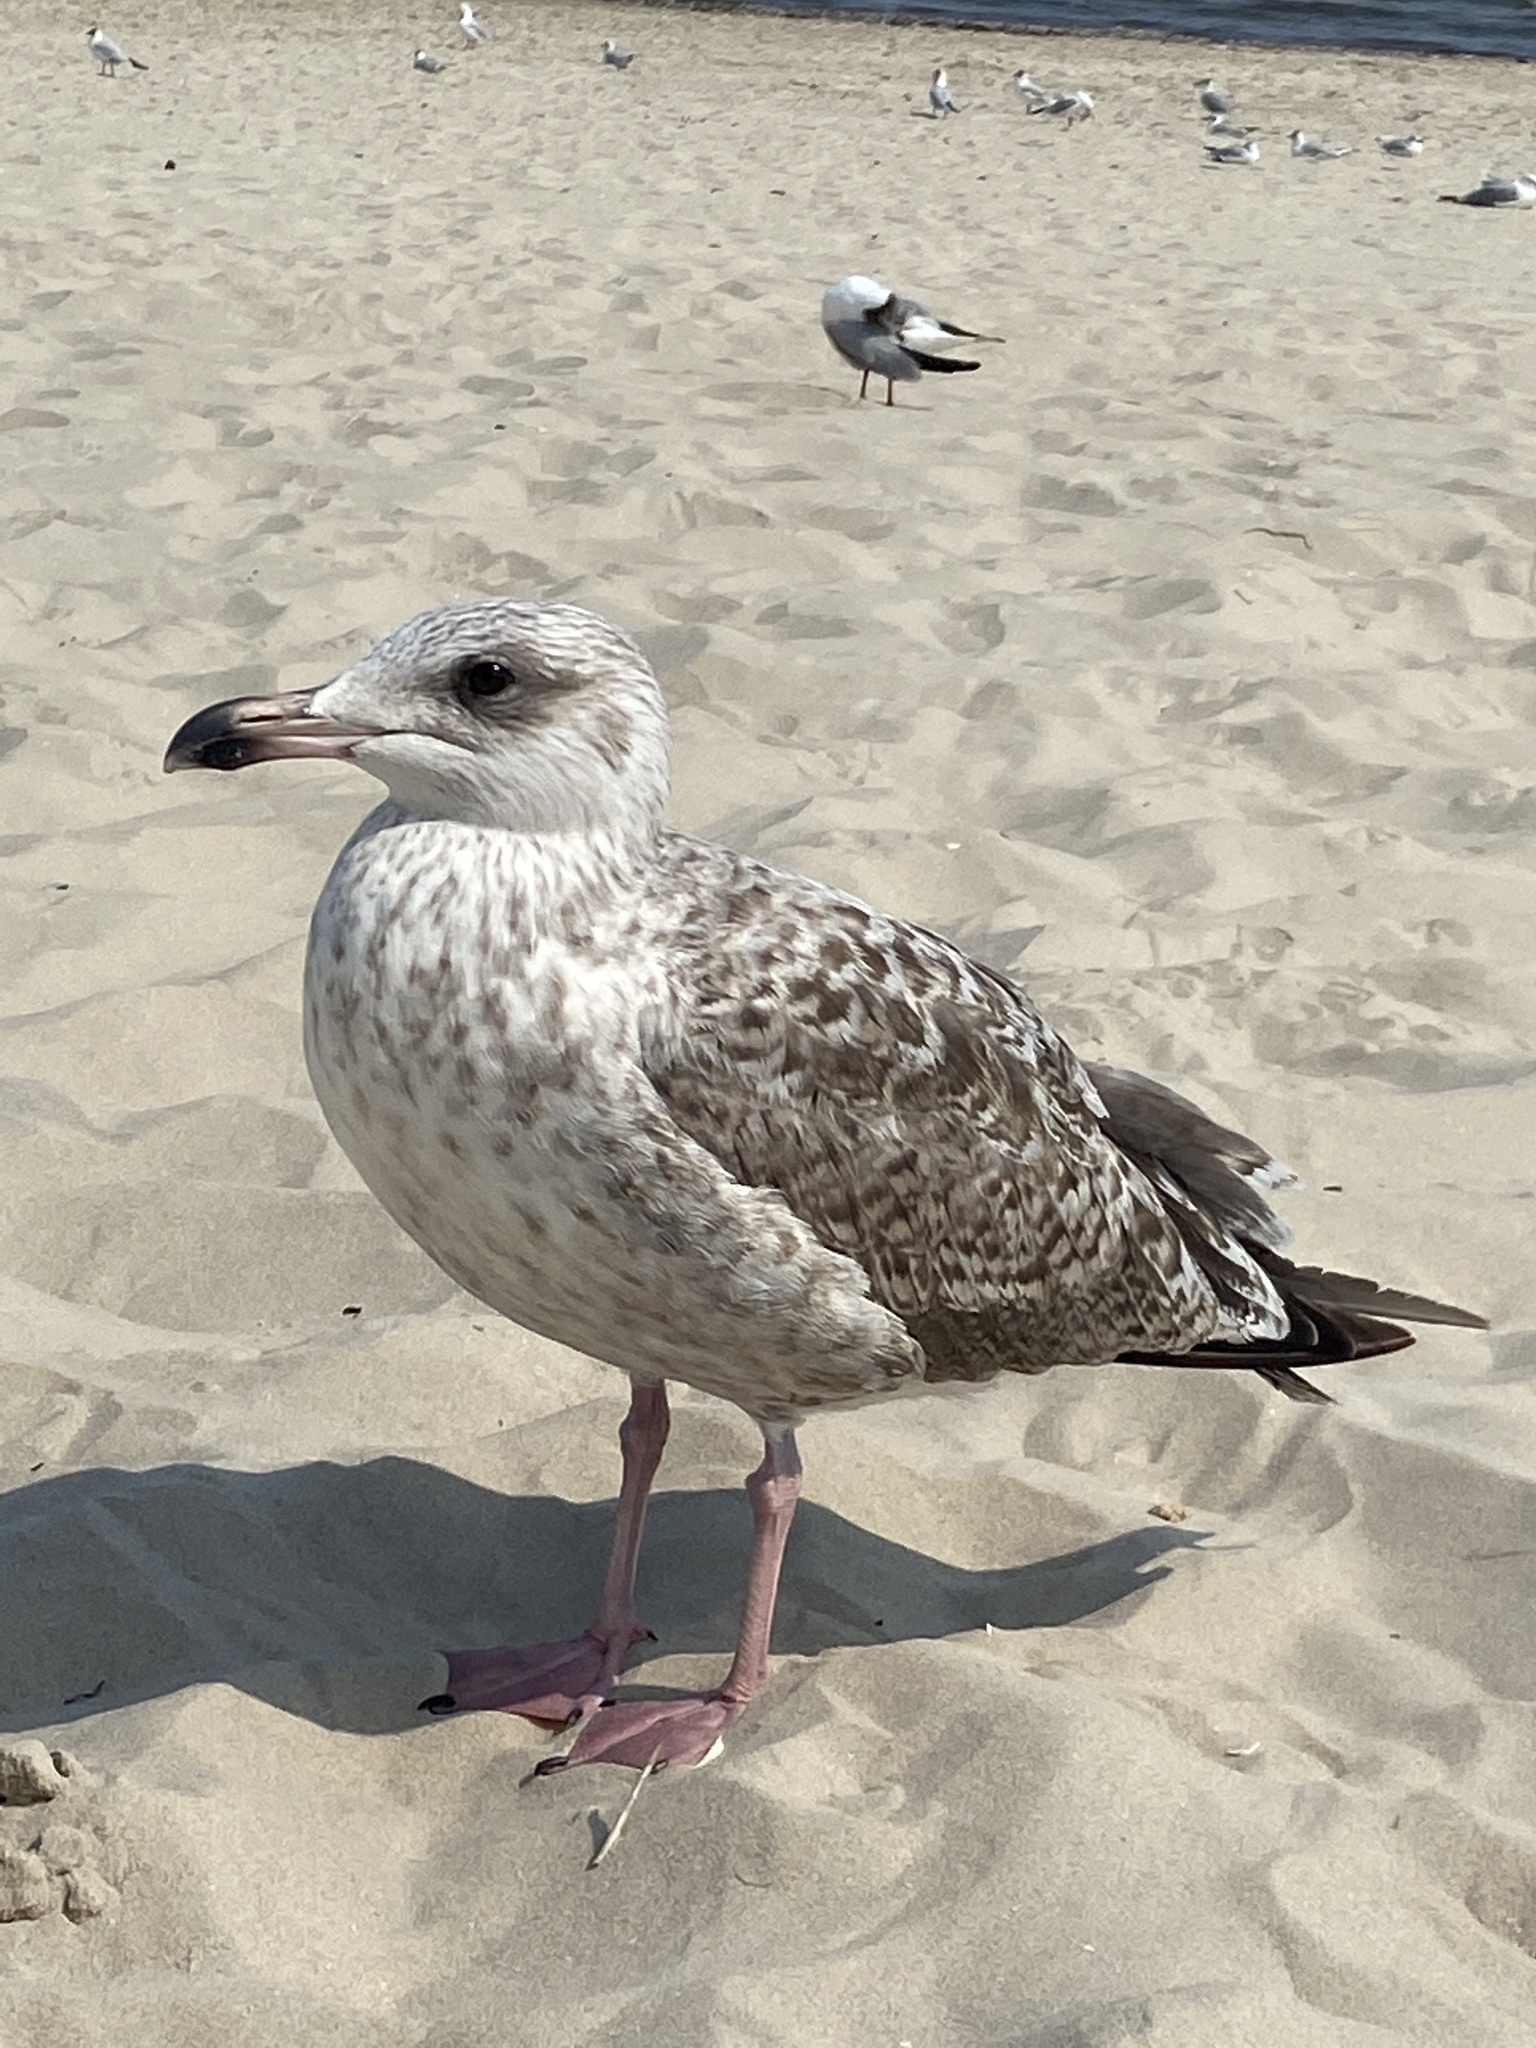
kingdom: Animalia
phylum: Chordata
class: Aves
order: Charadriiformes
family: Laridae
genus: Larus
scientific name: Larus argentatus
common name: Herring gull
